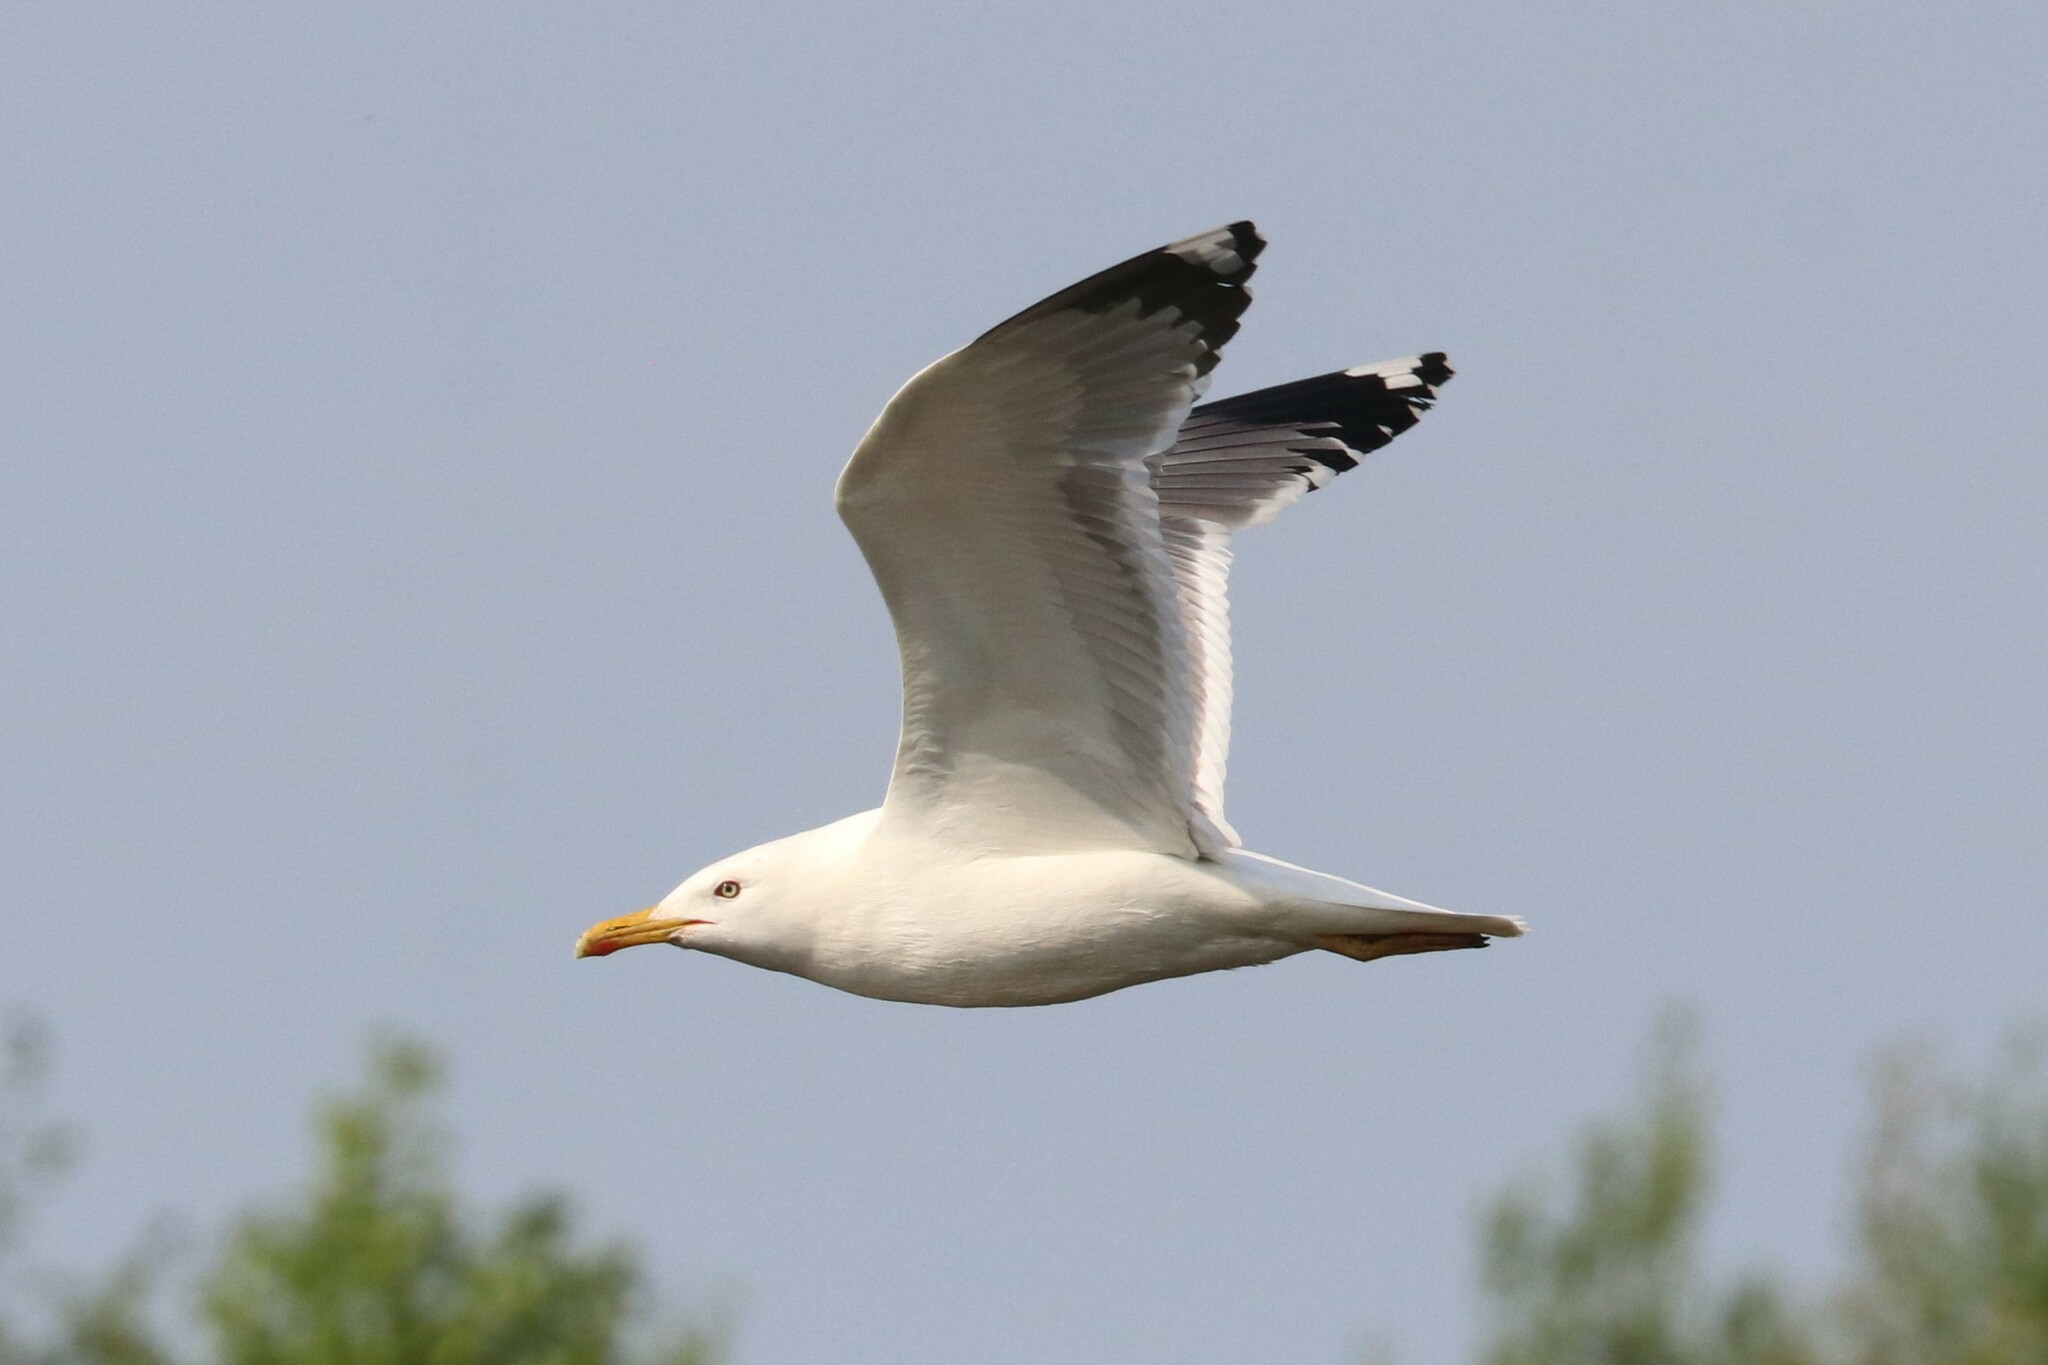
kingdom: Animalia
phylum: Chordata
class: Aves
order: Charadriiformes
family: Laridae
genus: Larus
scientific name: Larus cachinnans
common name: Caspian gull
